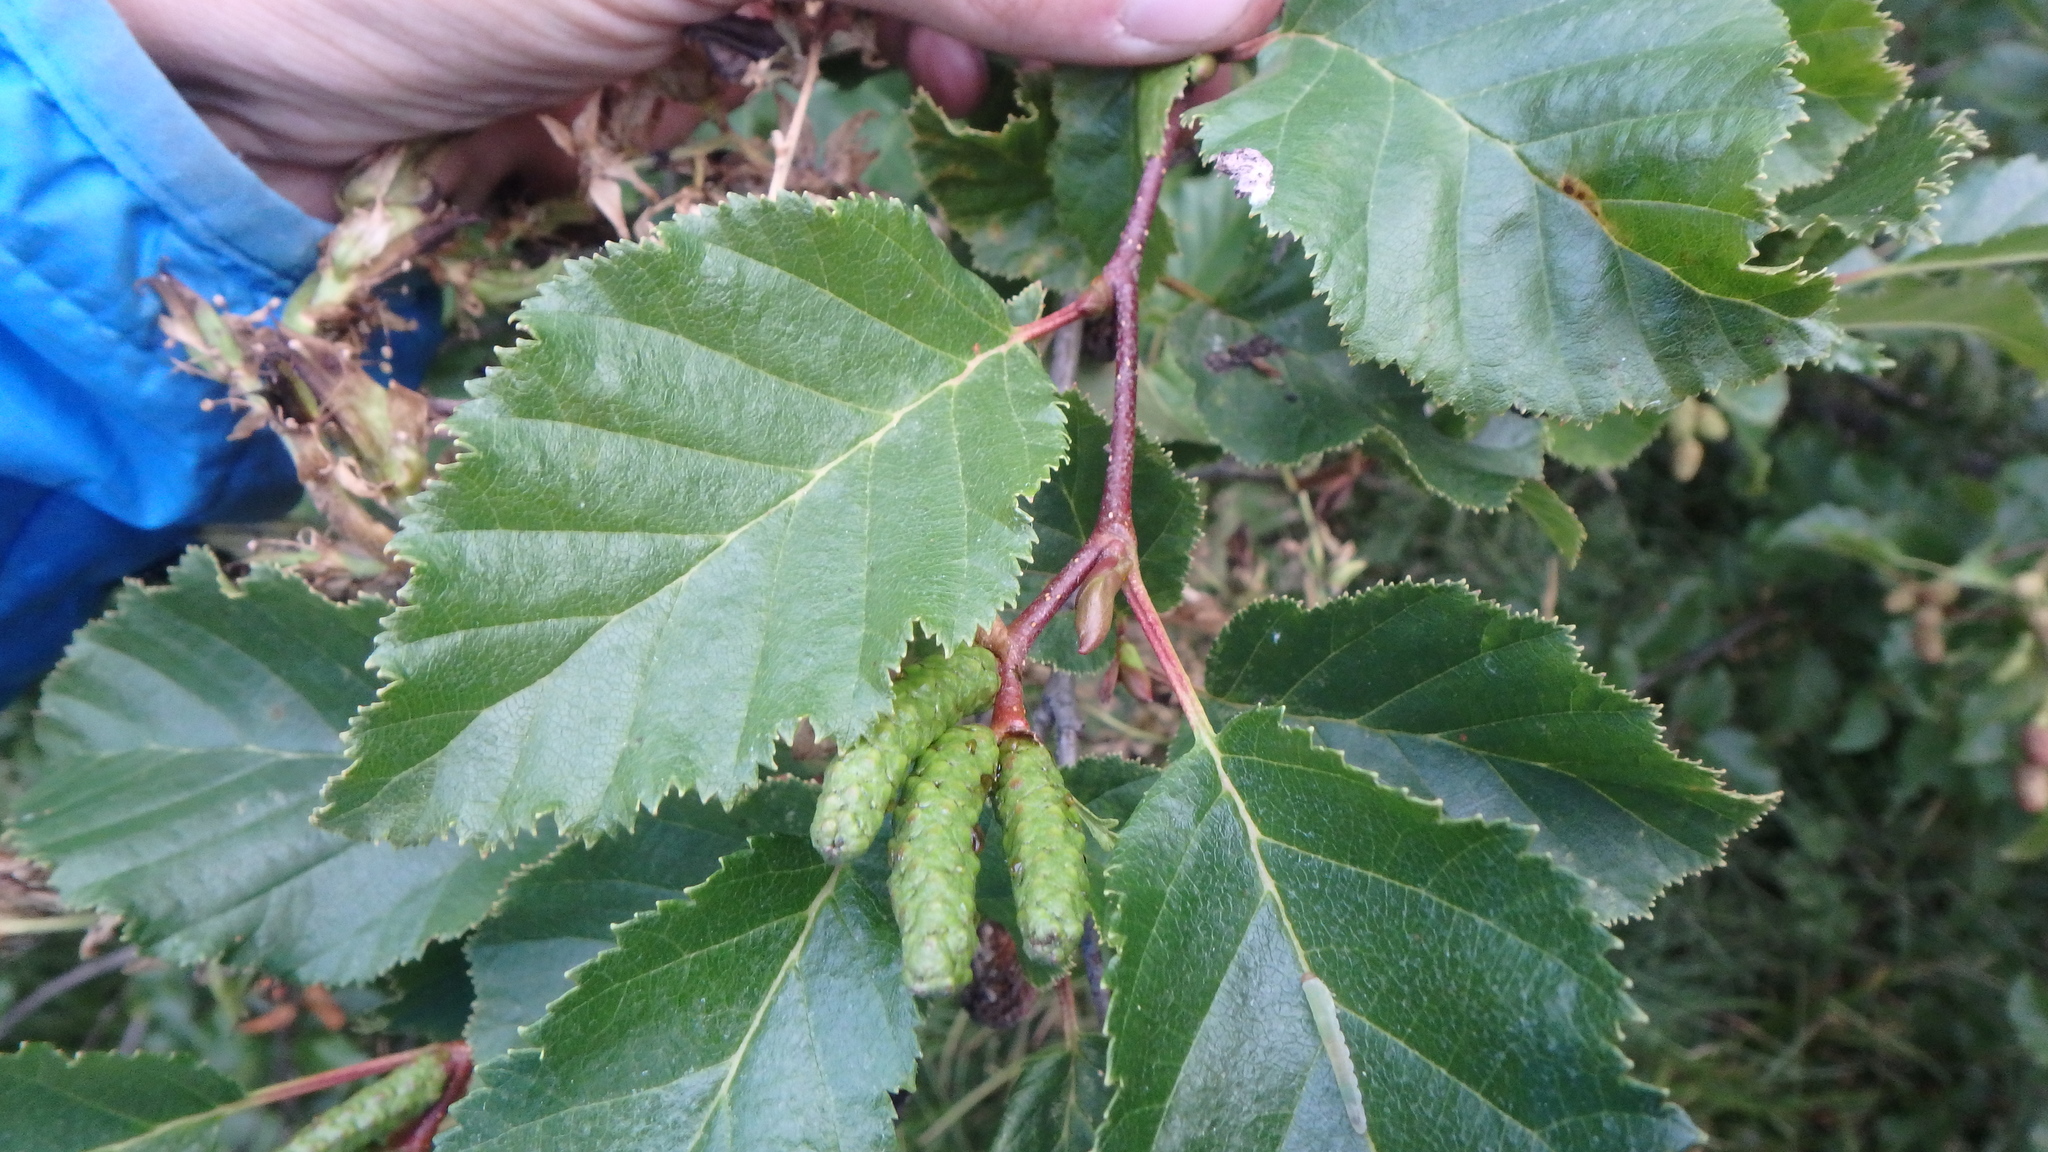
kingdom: Plantae
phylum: Tracheophyta
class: Magnoliopsida
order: Fagales
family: Betulaceae
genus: Alnus
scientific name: Alnus alnobetula
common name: Green alder
